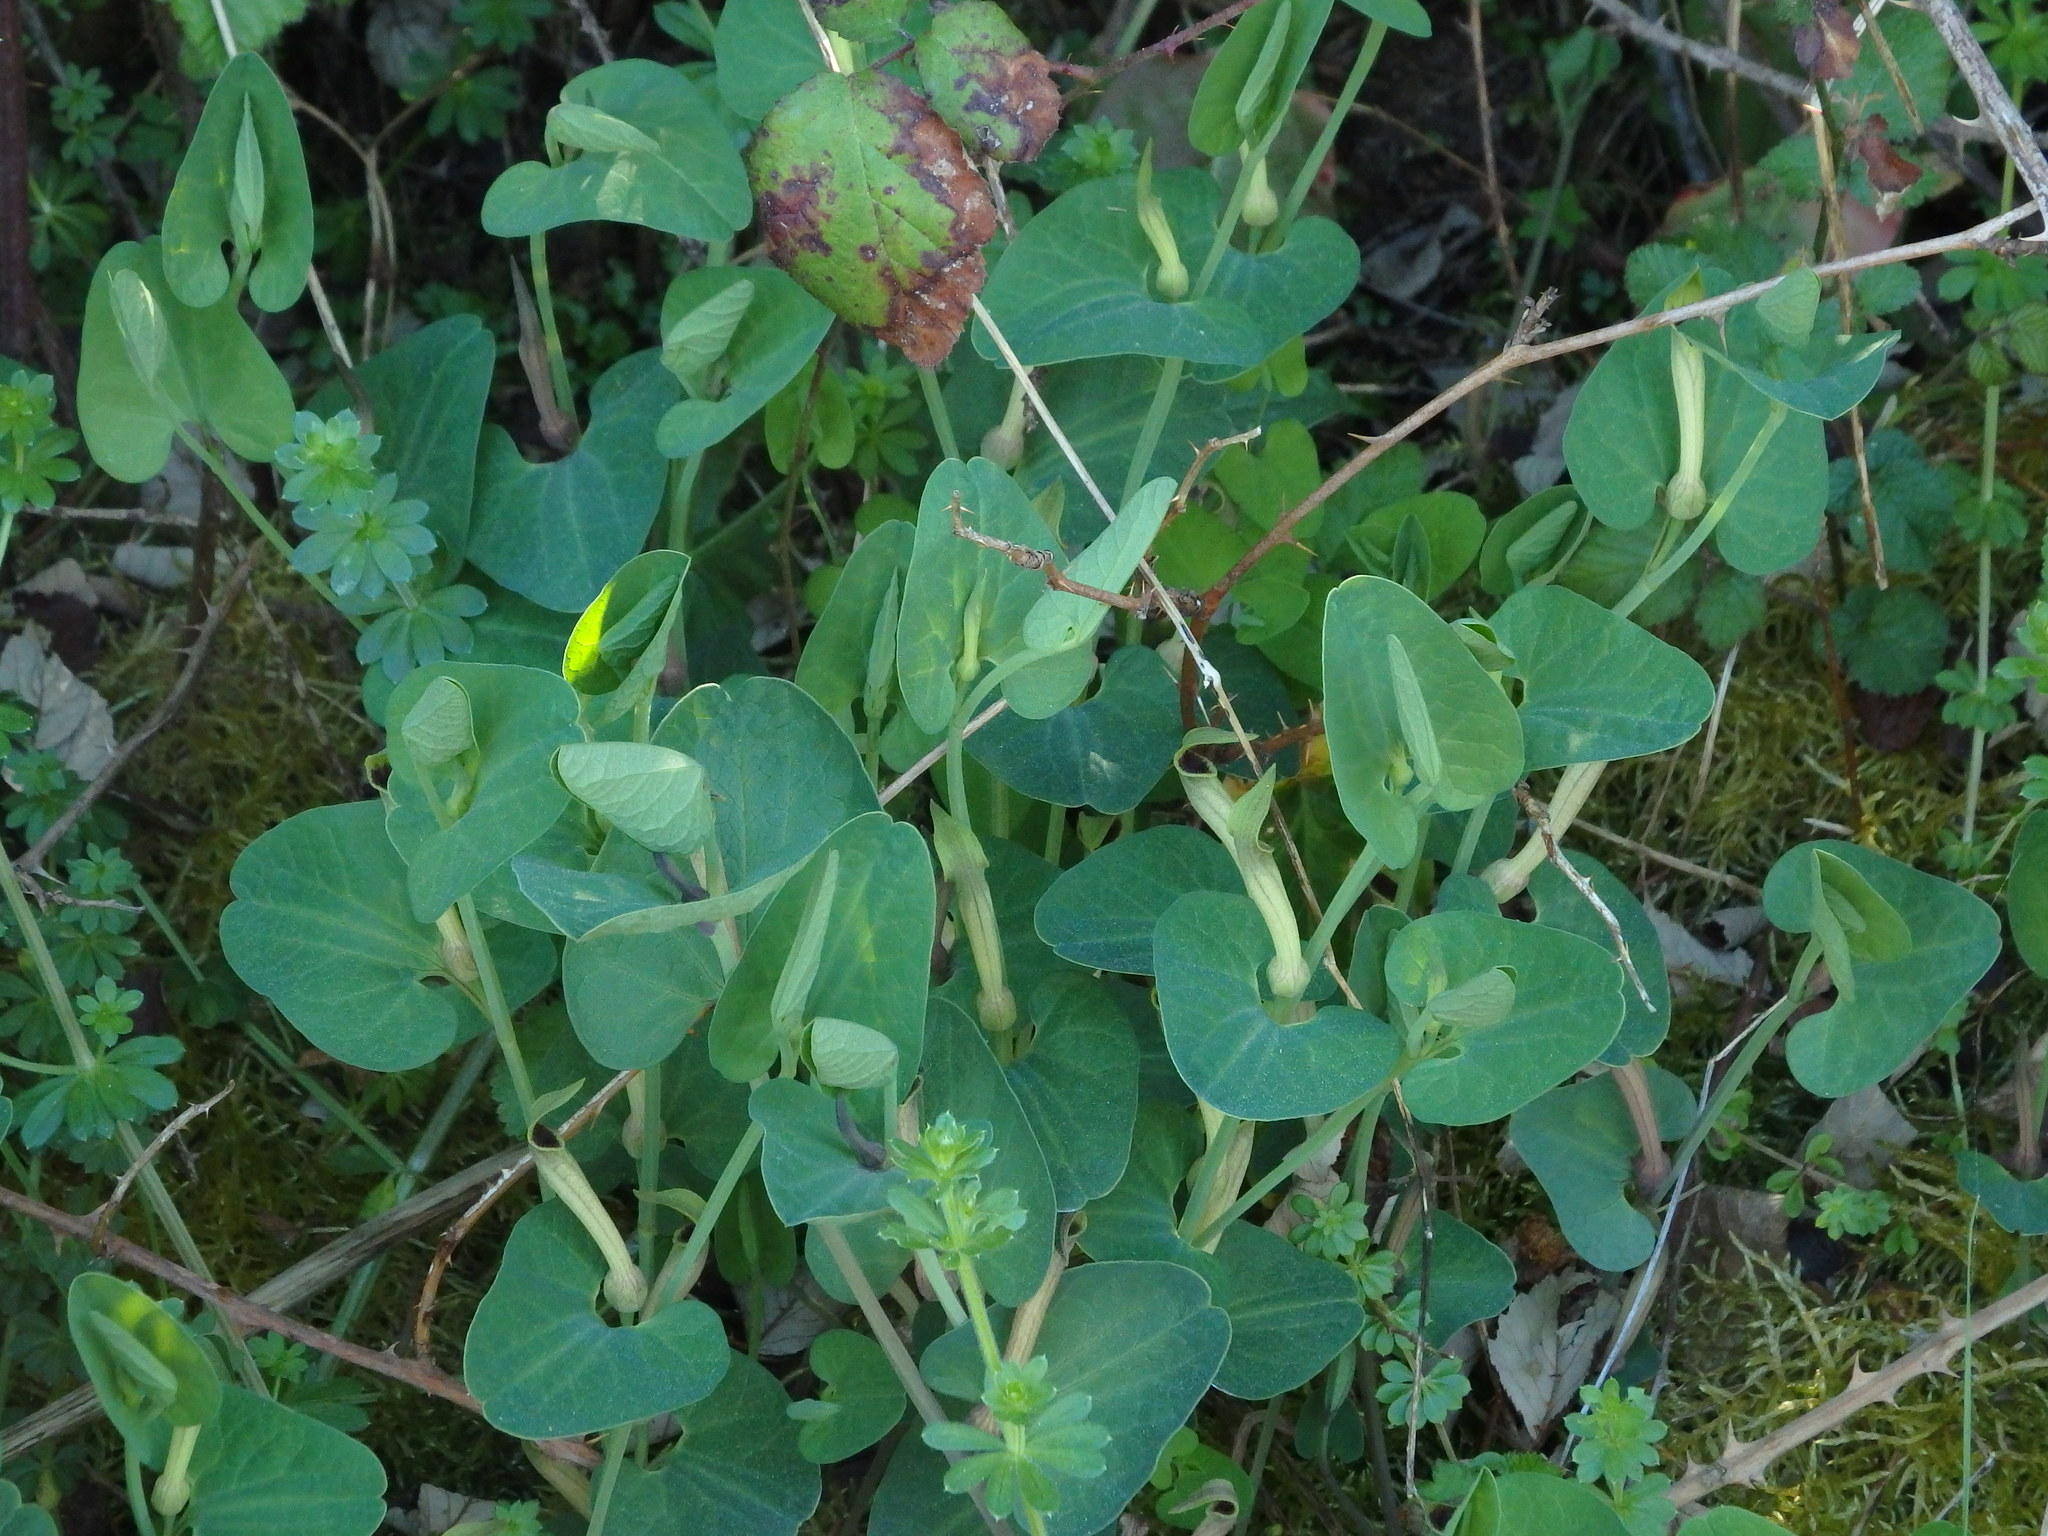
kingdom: Plantae
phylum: Tracheophyta
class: Magnoliopsida
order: Piperales
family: Aristolochiaceae
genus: Aristolochia
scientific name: Aristolochia paucinervis
